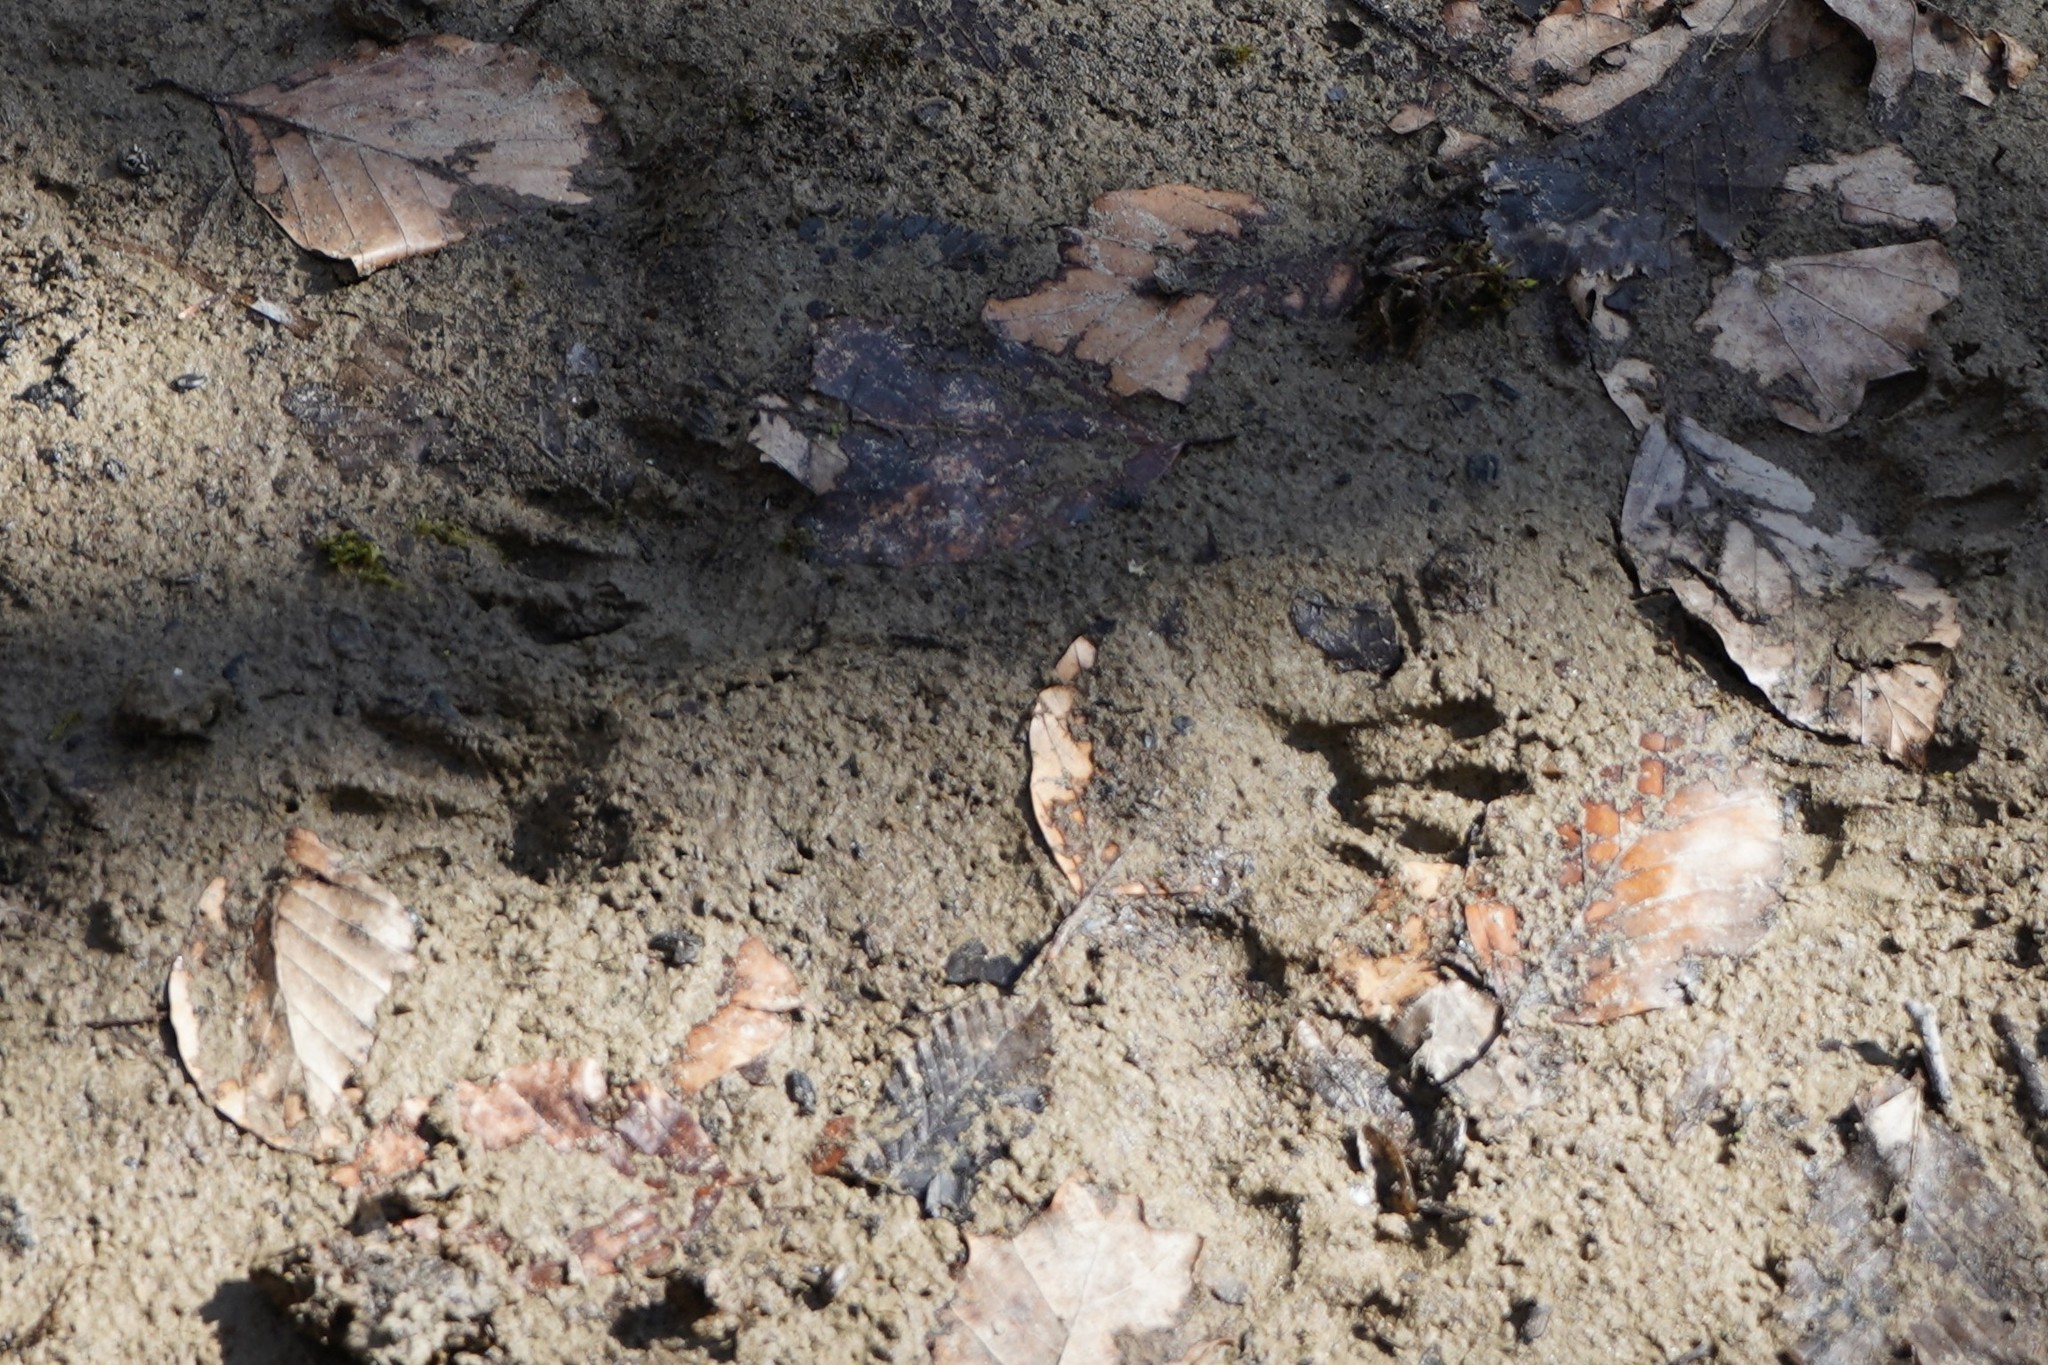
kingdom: Animalia
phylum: Chordata
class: Mammalia
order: Carnivora
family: Procyonidae
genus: Procyon
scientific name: Procyon lotor
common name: Raccoon
